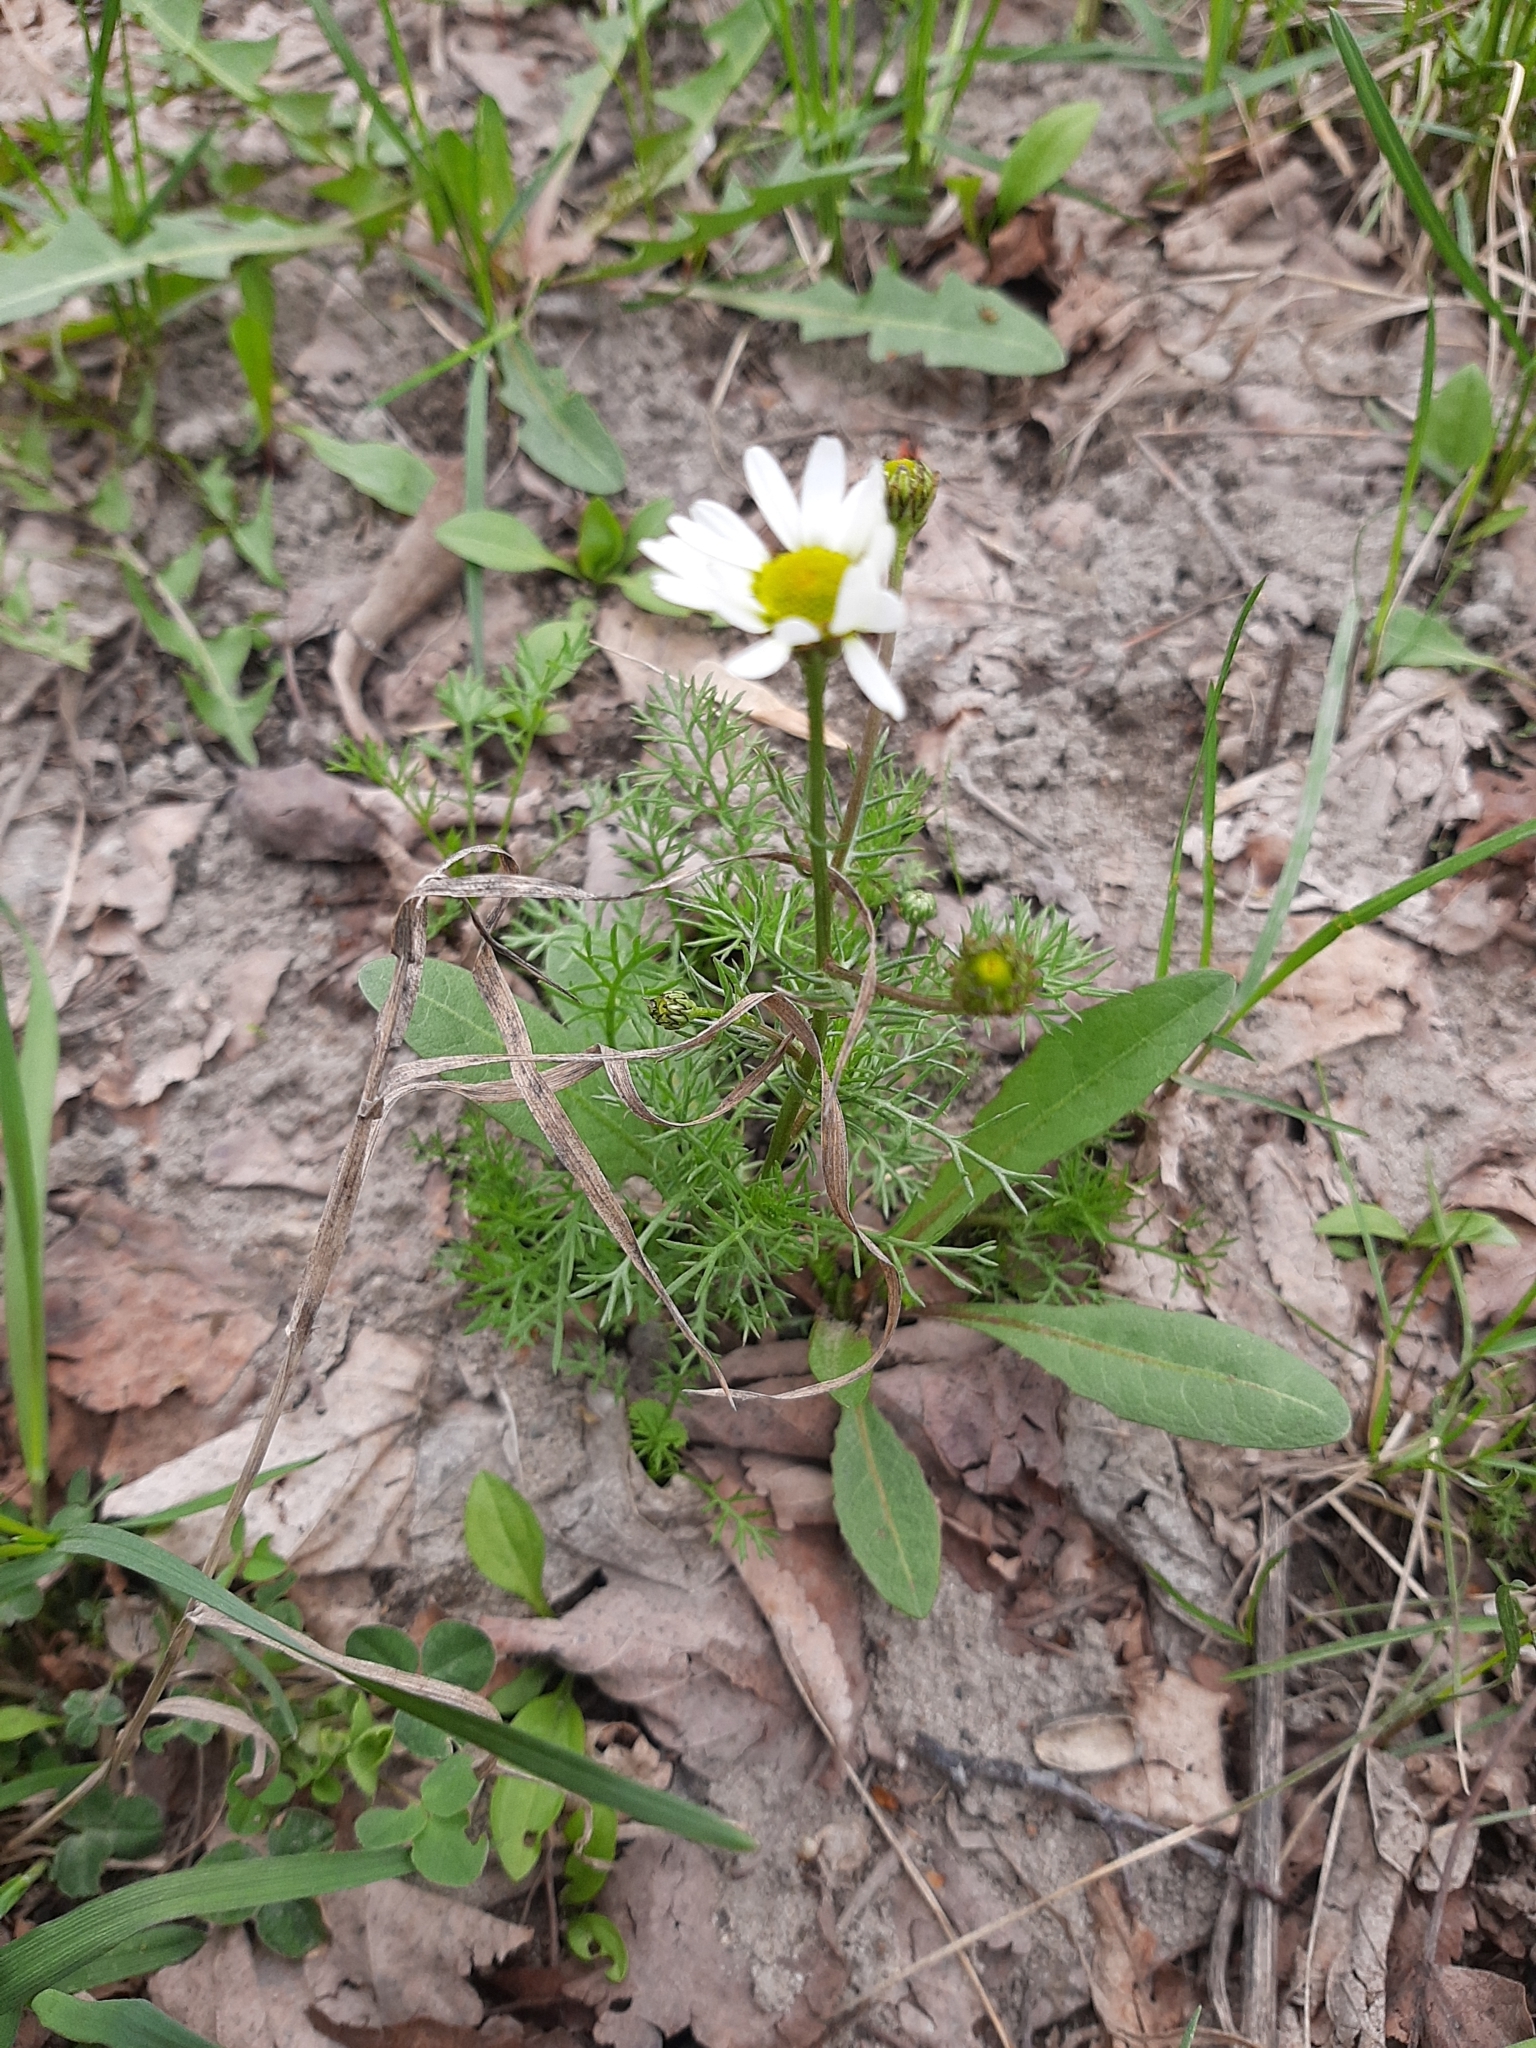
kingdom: Plantae
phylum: Tracheophyta
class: Magnoliopsida
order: Asterales
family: Asteraceae
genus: Tripleurospermum
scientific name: Tripleurospermum inodorum
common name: Scentless mayweed
